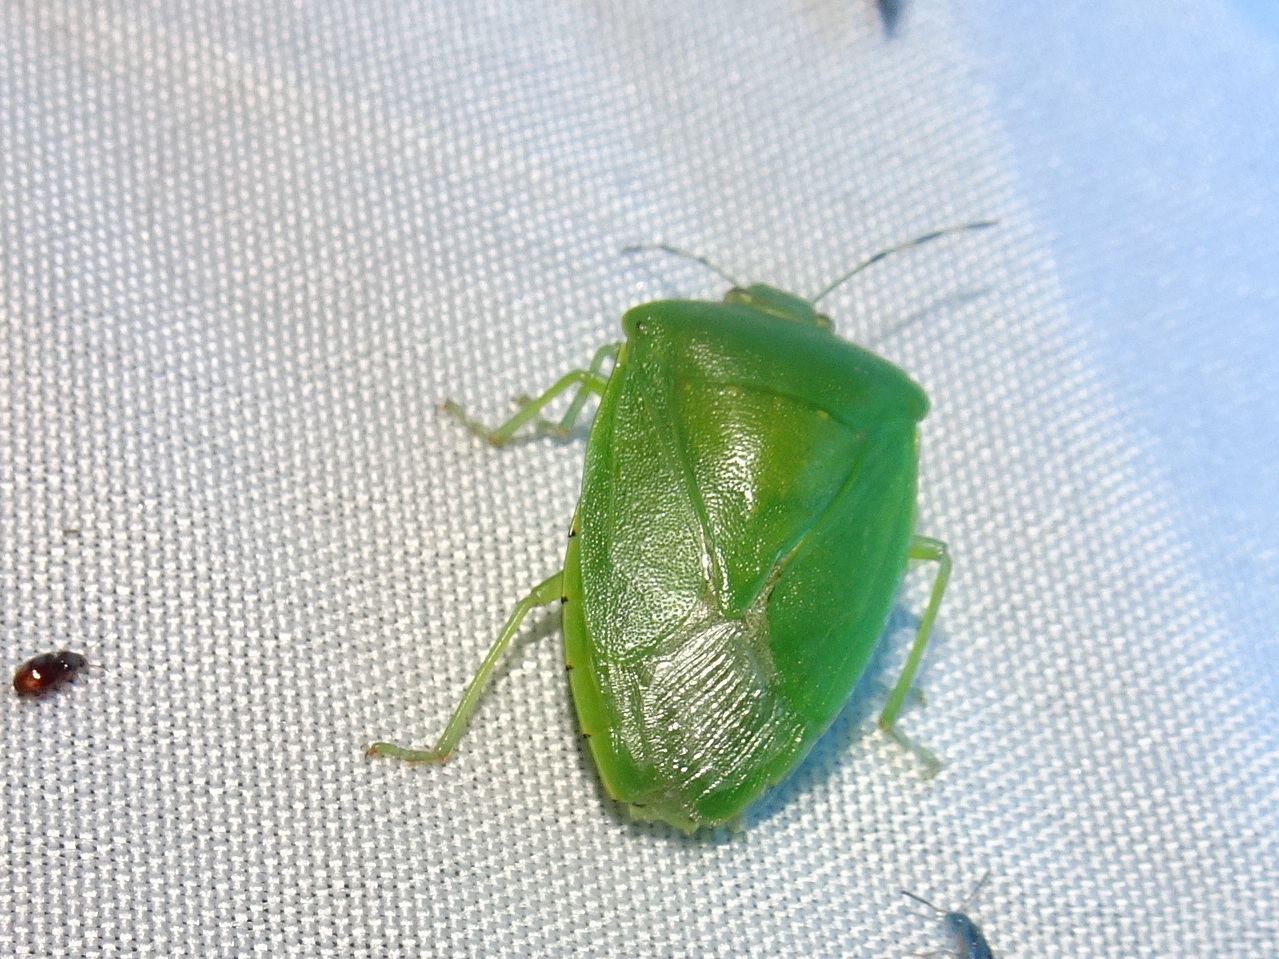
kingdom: Animalia
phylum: Arthropoda
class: Insecta
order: Hemiptera
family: Pentatomidae
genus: Chinavia
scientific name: Chinavia hilaris
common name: Green stink bug
